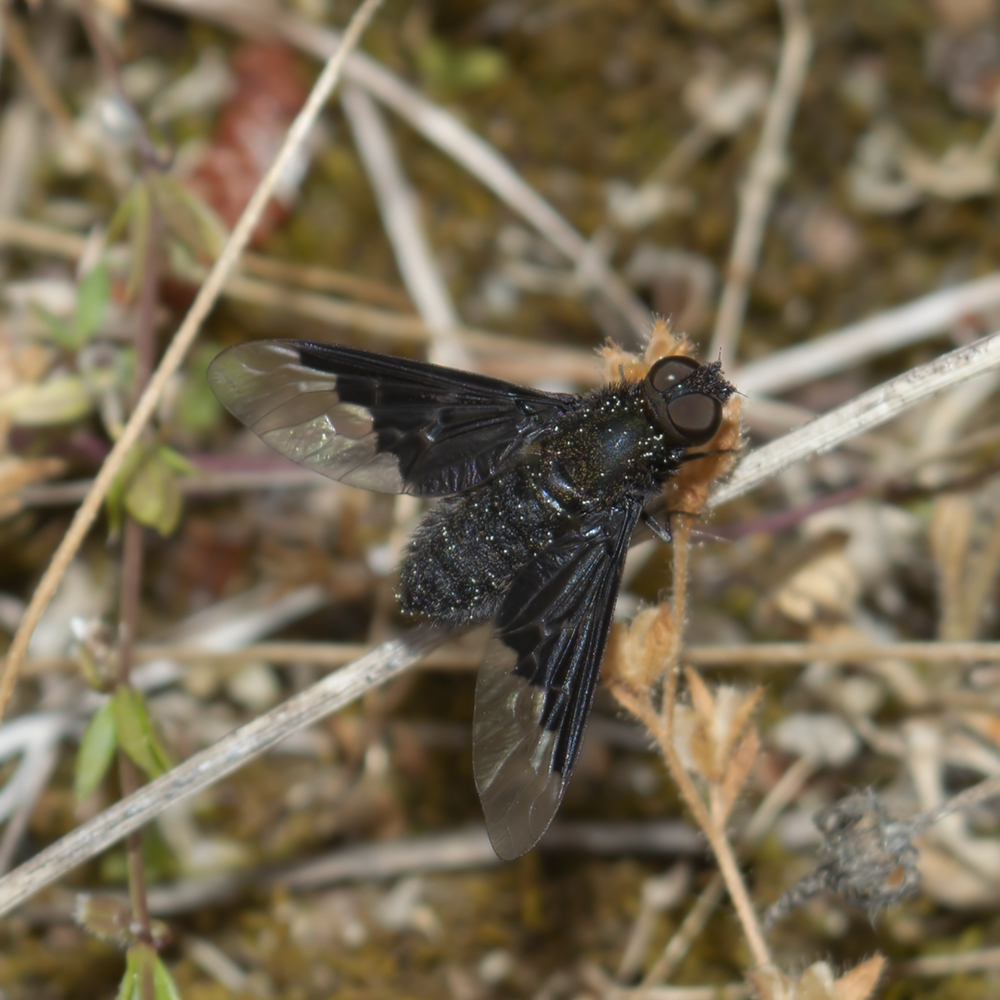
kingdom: Animalia
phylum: Arthropoda
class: Insecta
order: Diptera
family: Bombyliidae
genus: Hemipenthes
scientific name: Hemipenthes morio
